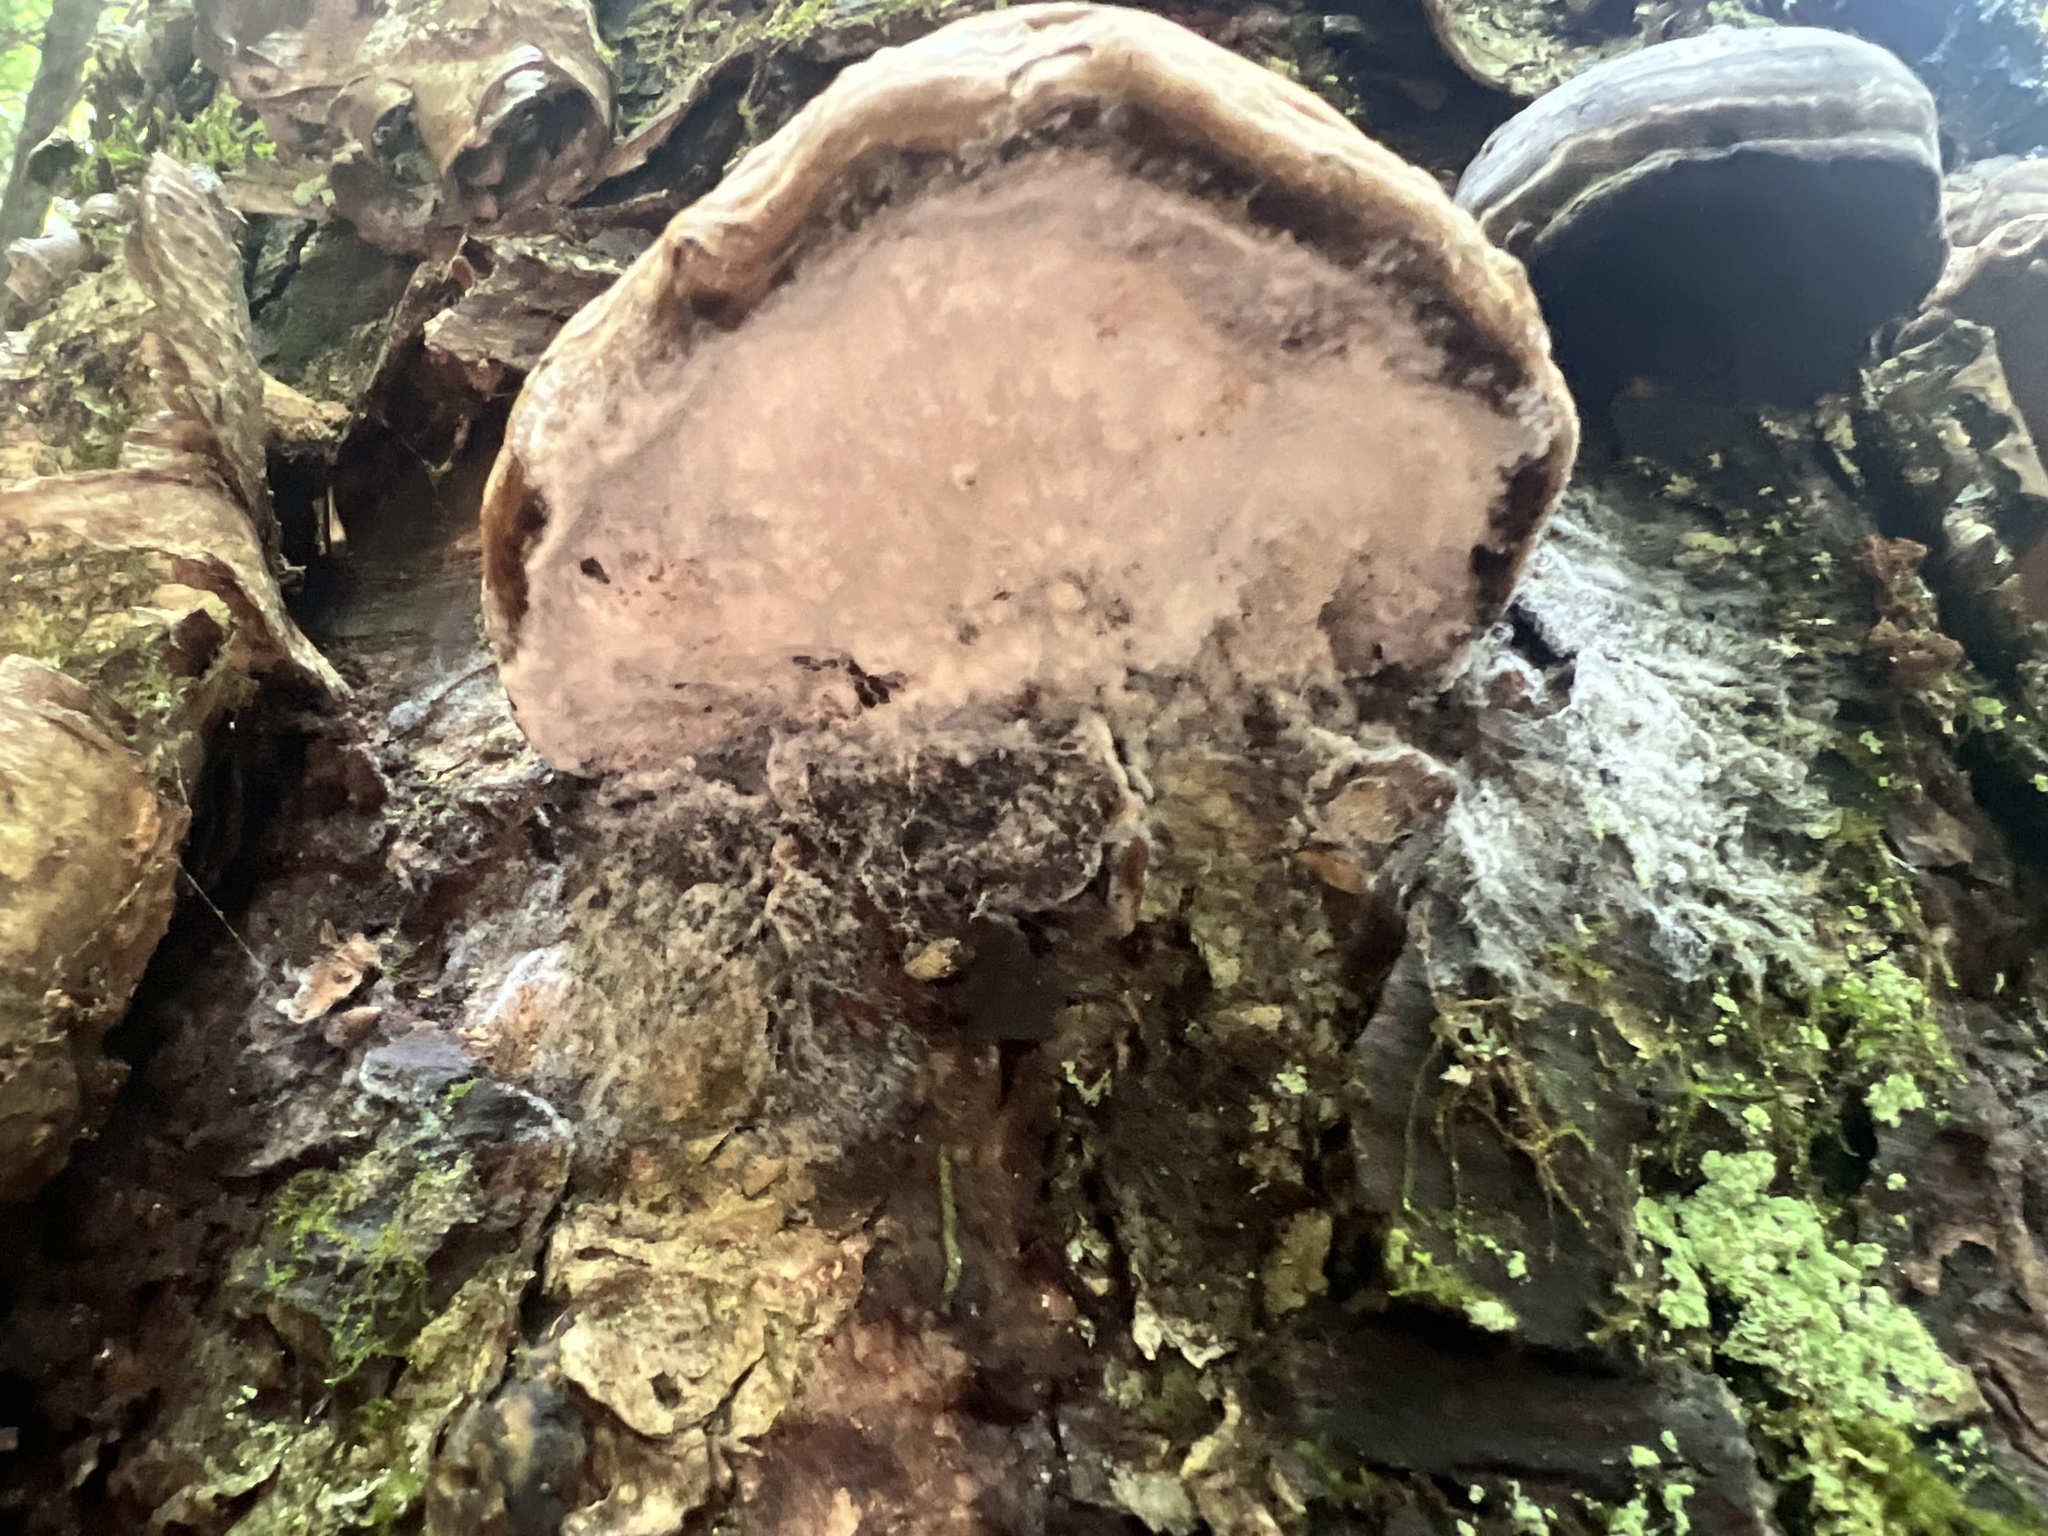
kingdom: Fungi
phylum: Basidiomycota
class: Agaricomycetes
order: Polyporales
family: Polyporaceae
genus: Fomes
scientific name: Fomes fomentarius
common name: Hoof fungus
